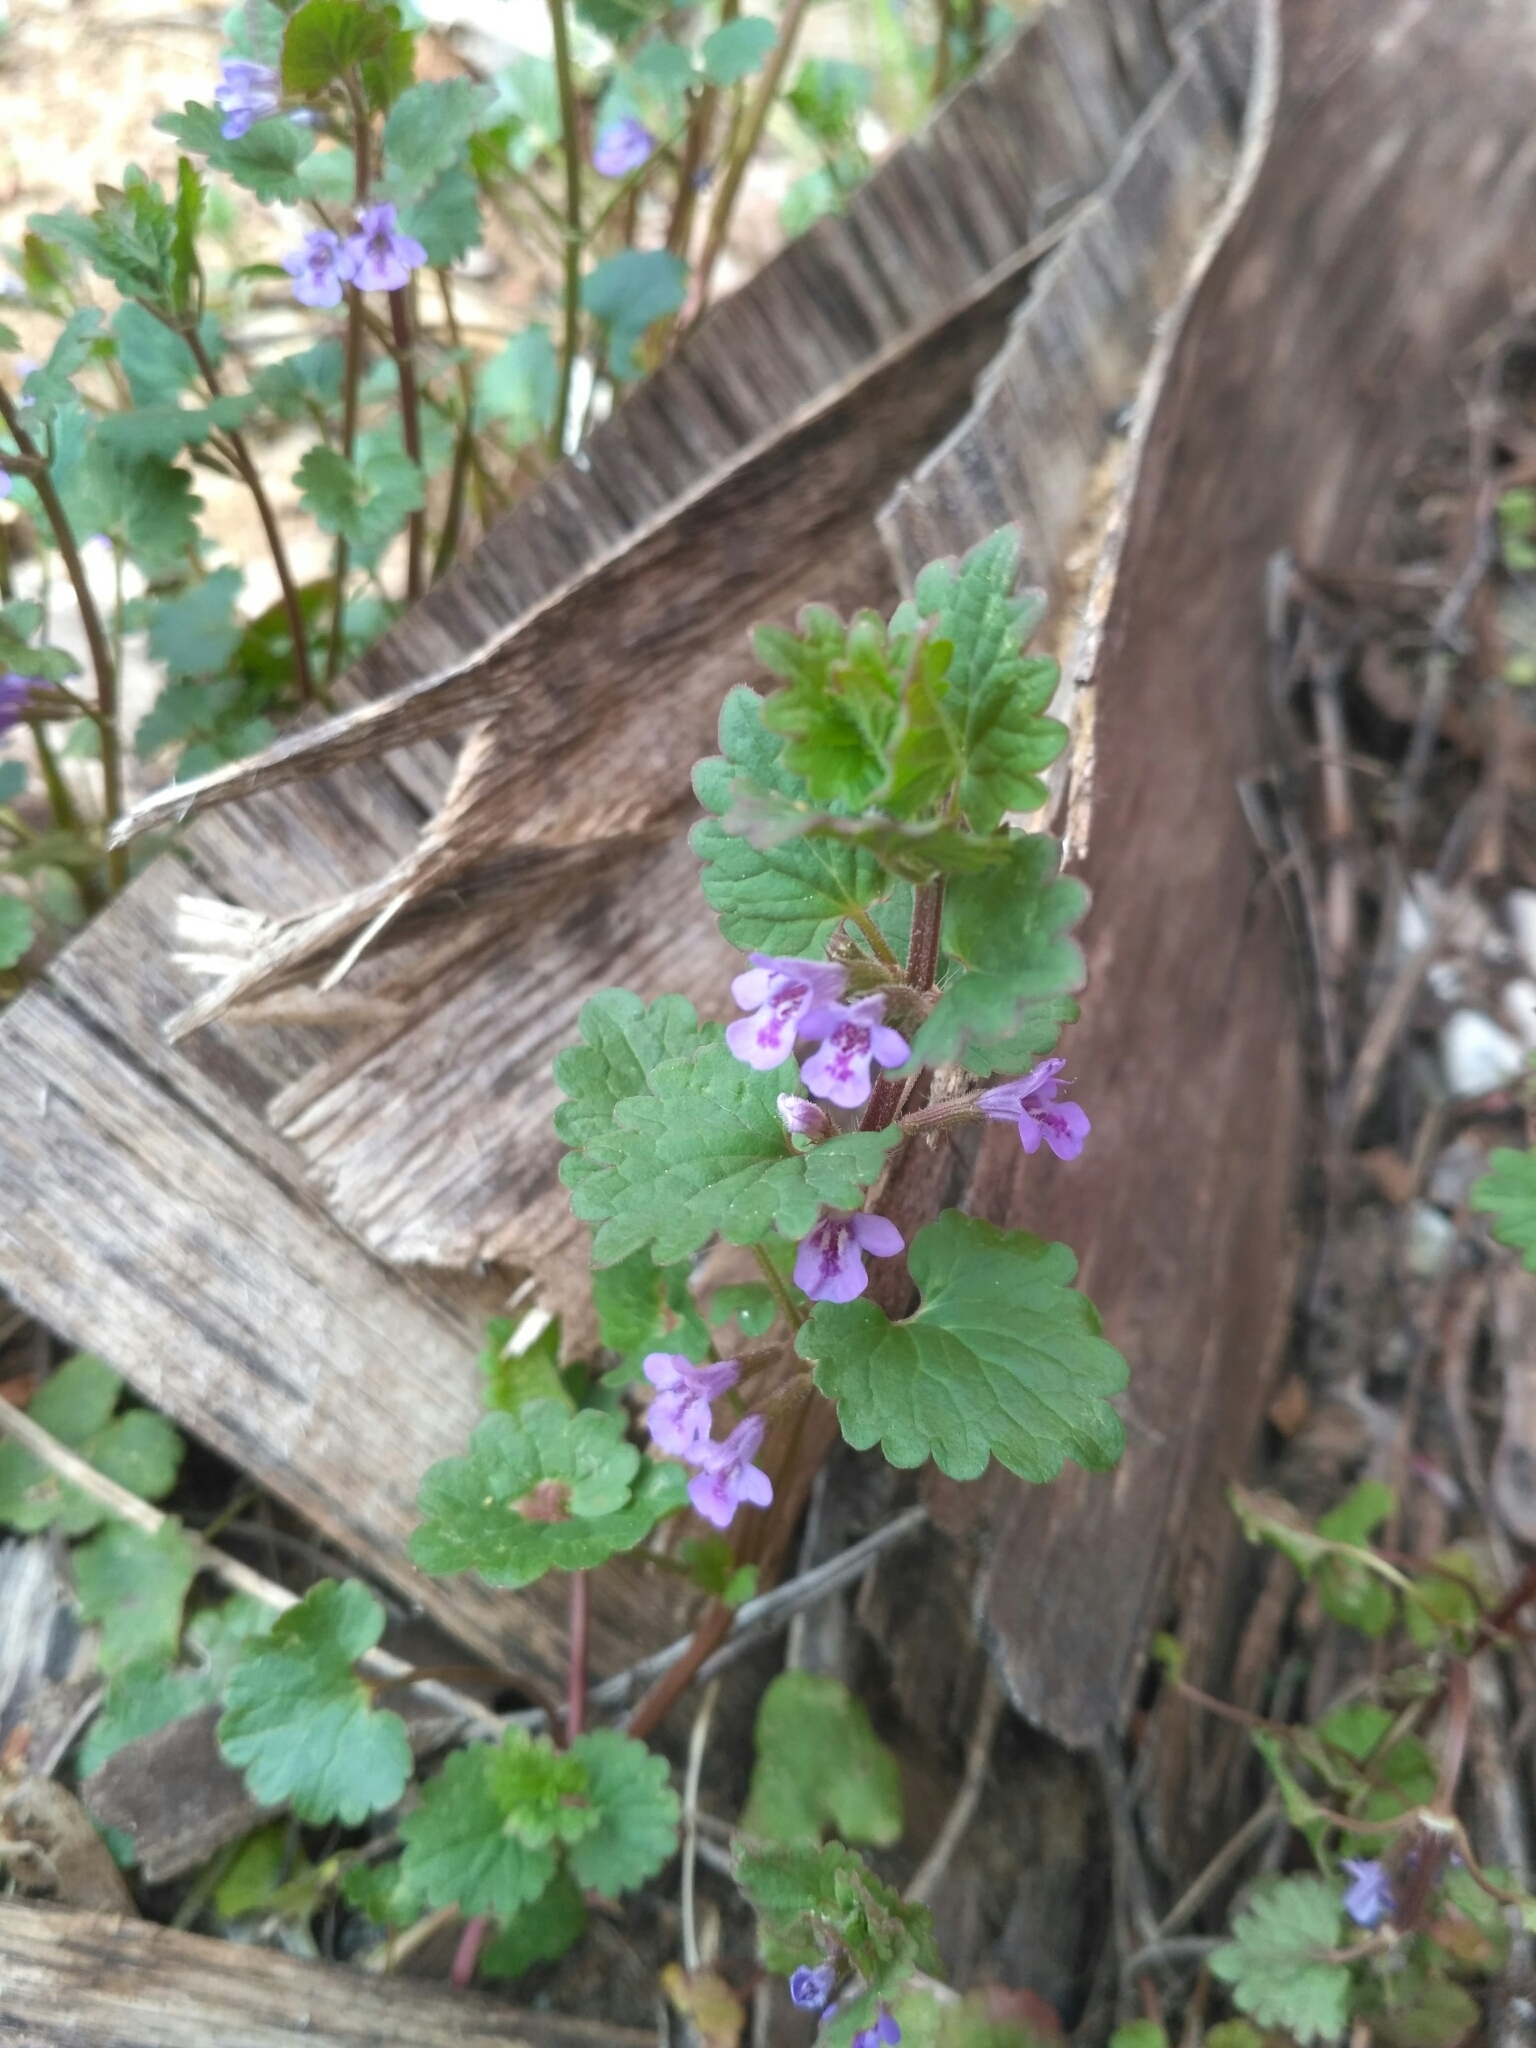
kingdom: Plantae
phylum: Tracheophyta
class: Magnoliopsida
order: Lamiales
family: Lamiaceae
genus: Glechoma
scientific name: Glechoma hederacea
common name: Ground ivy
